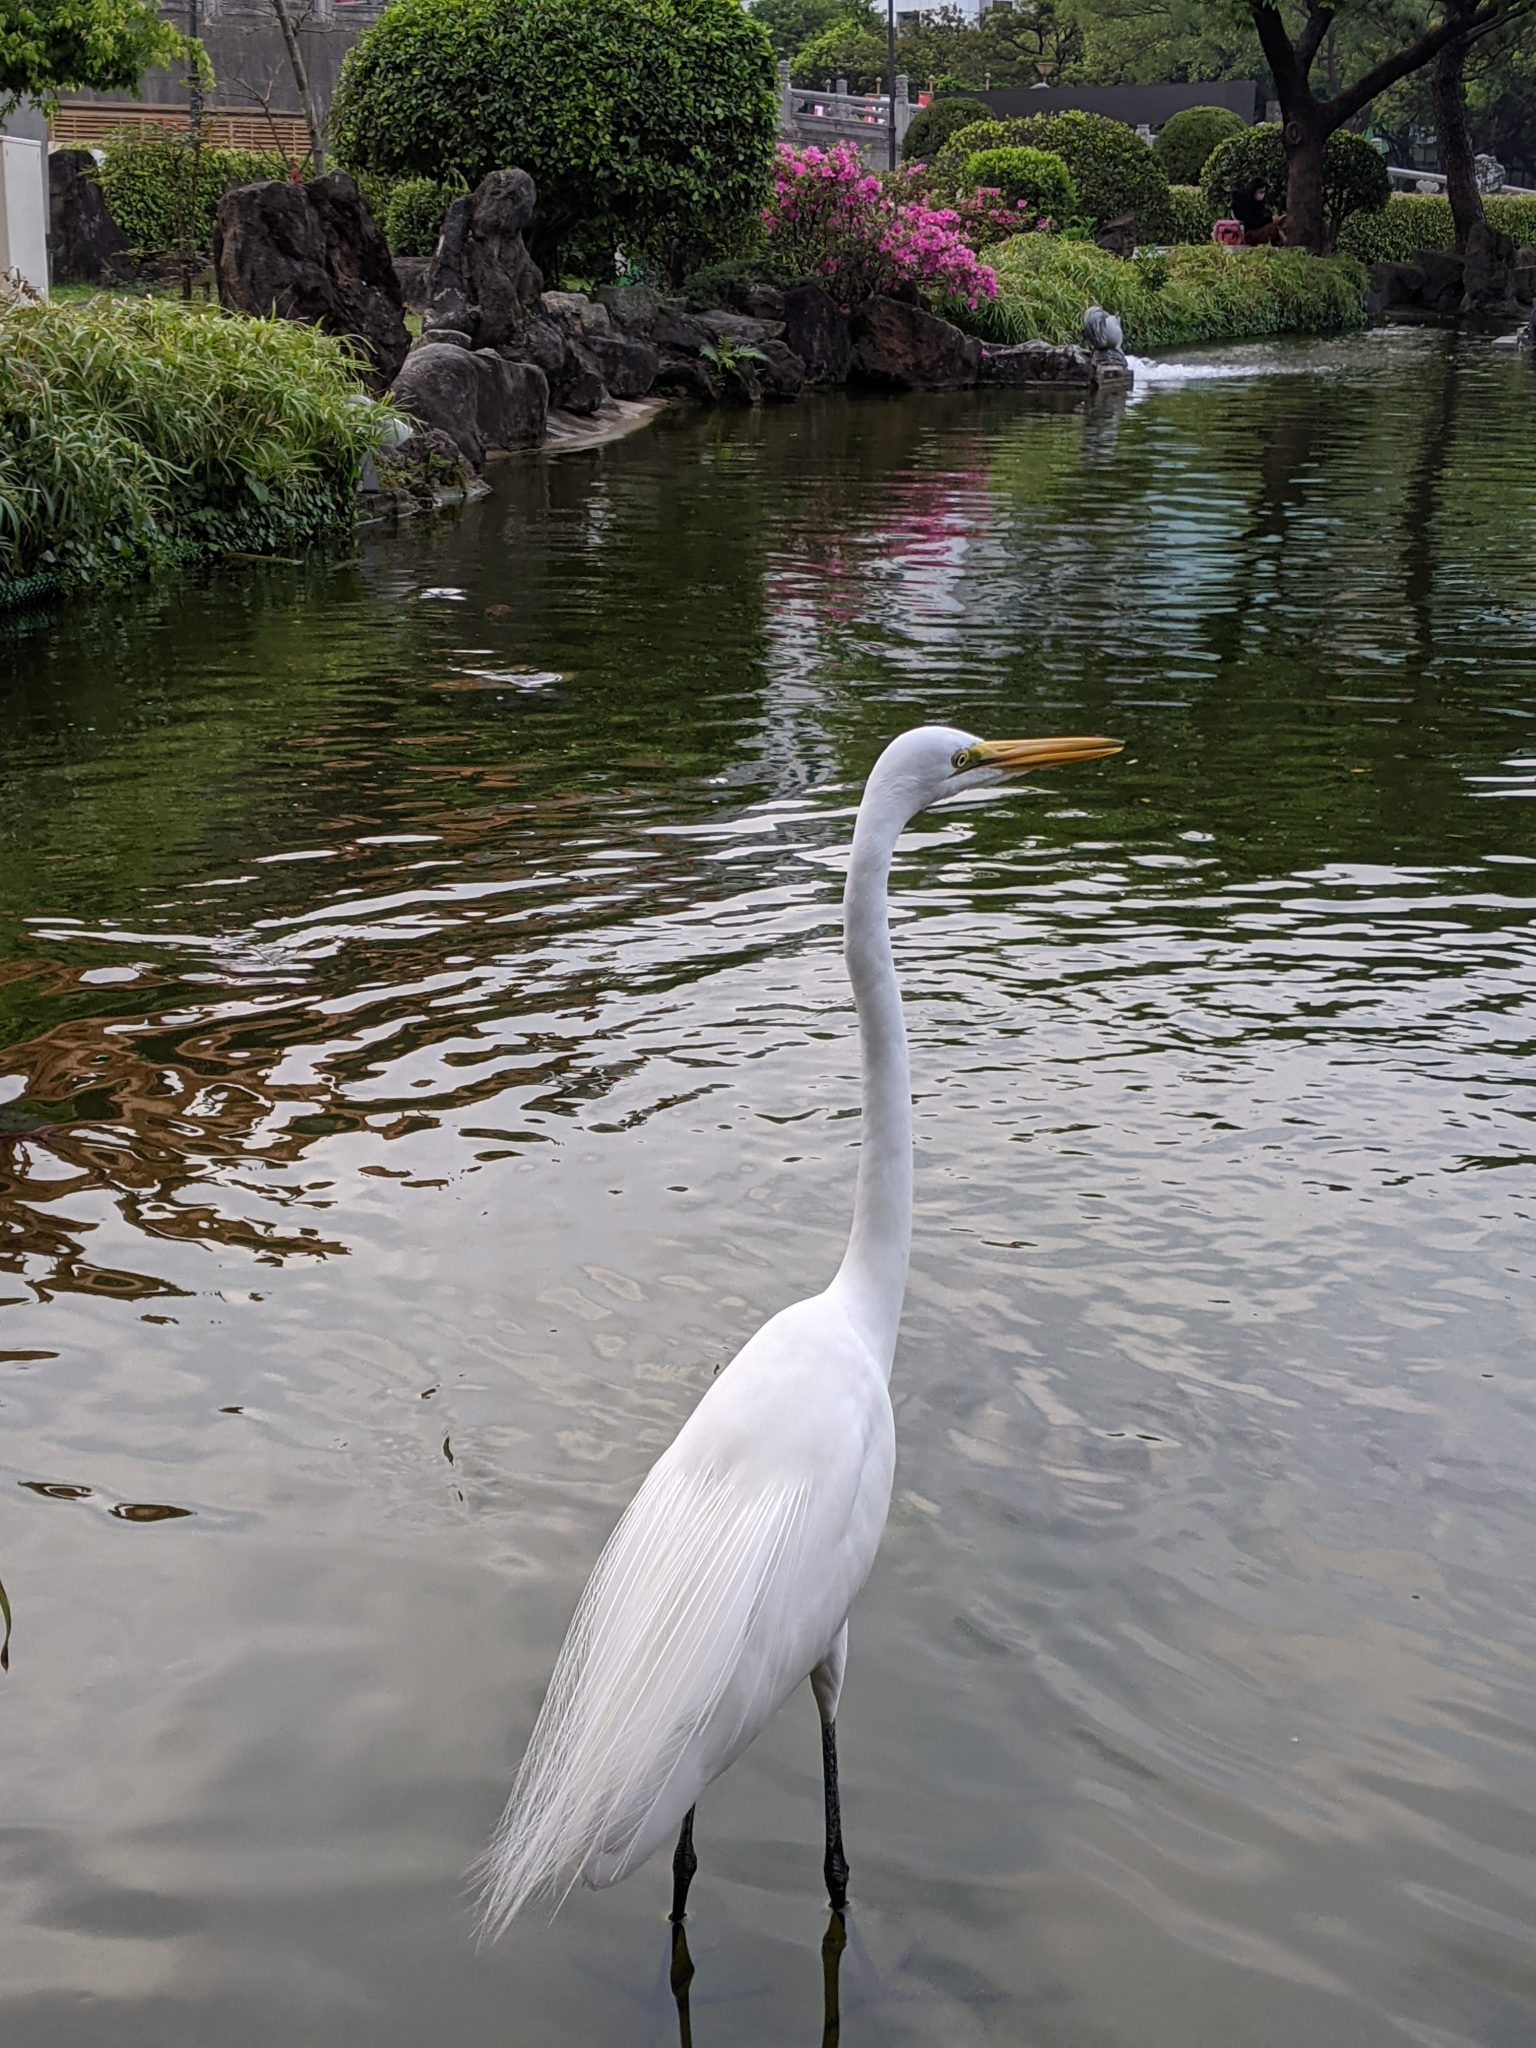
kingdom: Animalia
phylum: Chordata
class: Aves
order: Pelecaniformes
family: Ardeidae
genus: Ardea
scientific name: Ardea alba
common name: Great egret
